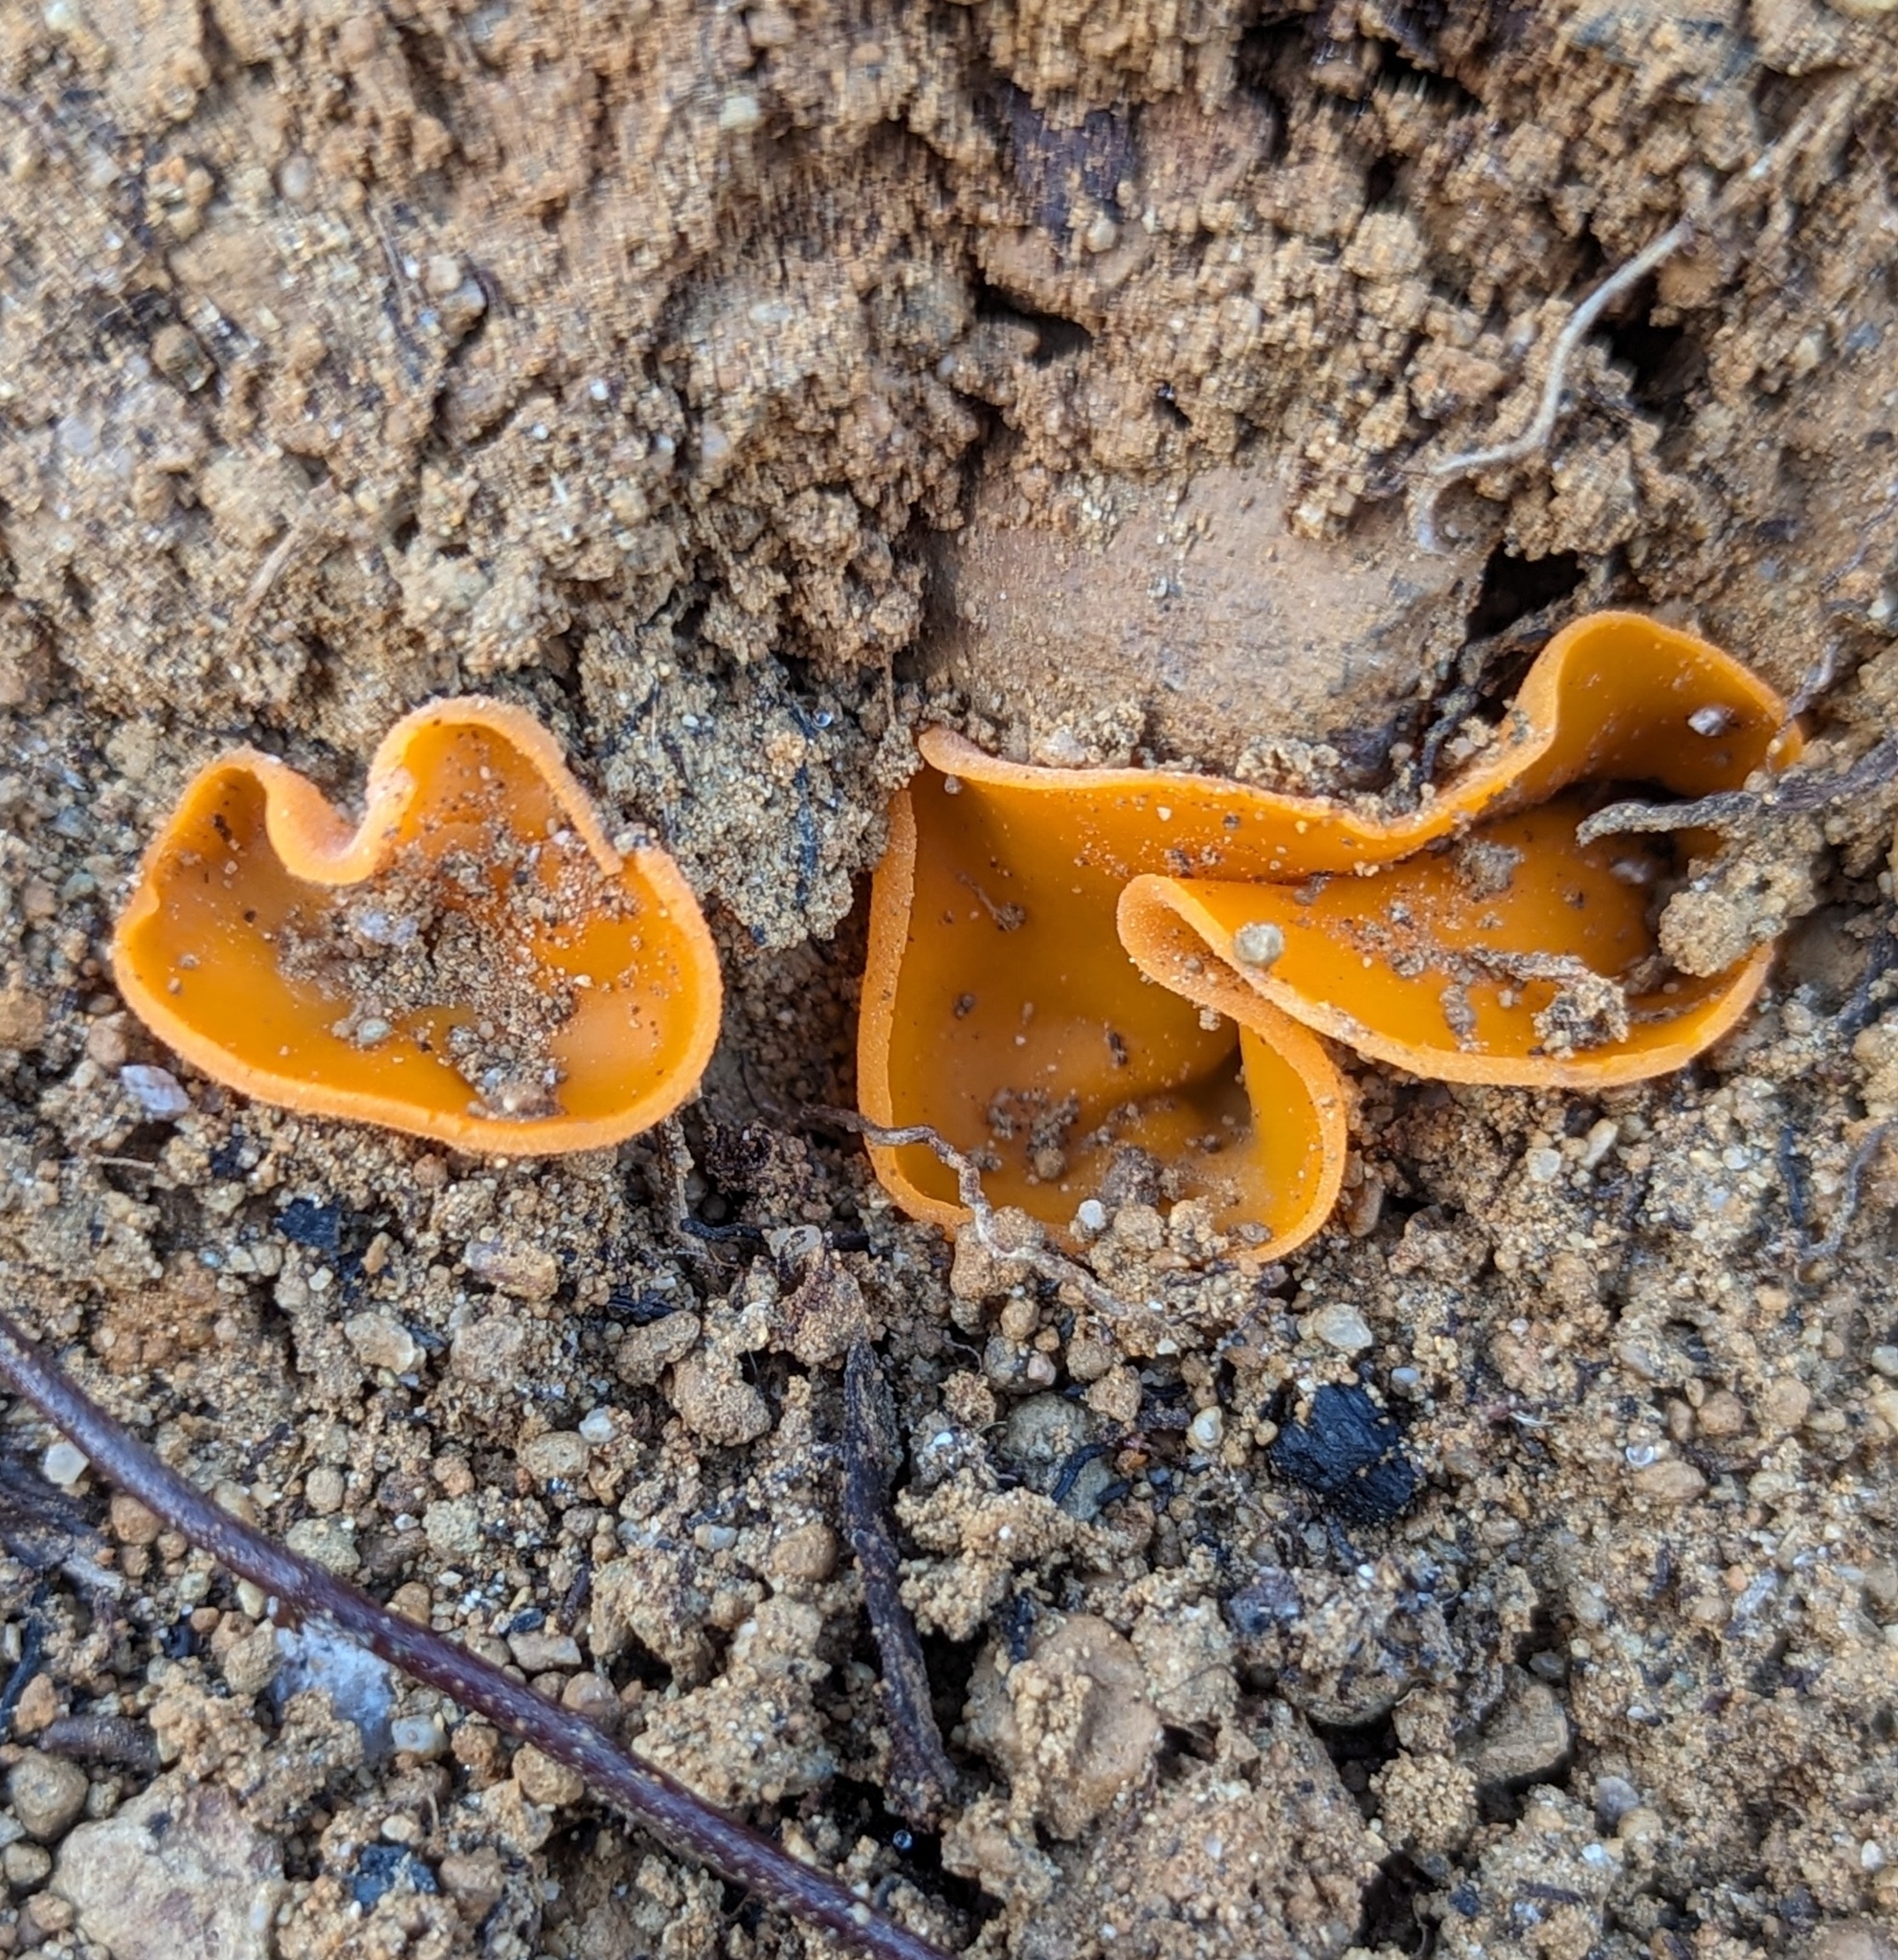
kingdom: Fungi
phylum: Ascomycota
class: Pezizomycetes
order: Pezizales
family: Pyronemataceae
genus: Aleuria
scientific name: Aleuria aurantia
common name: Orange peel fungus
